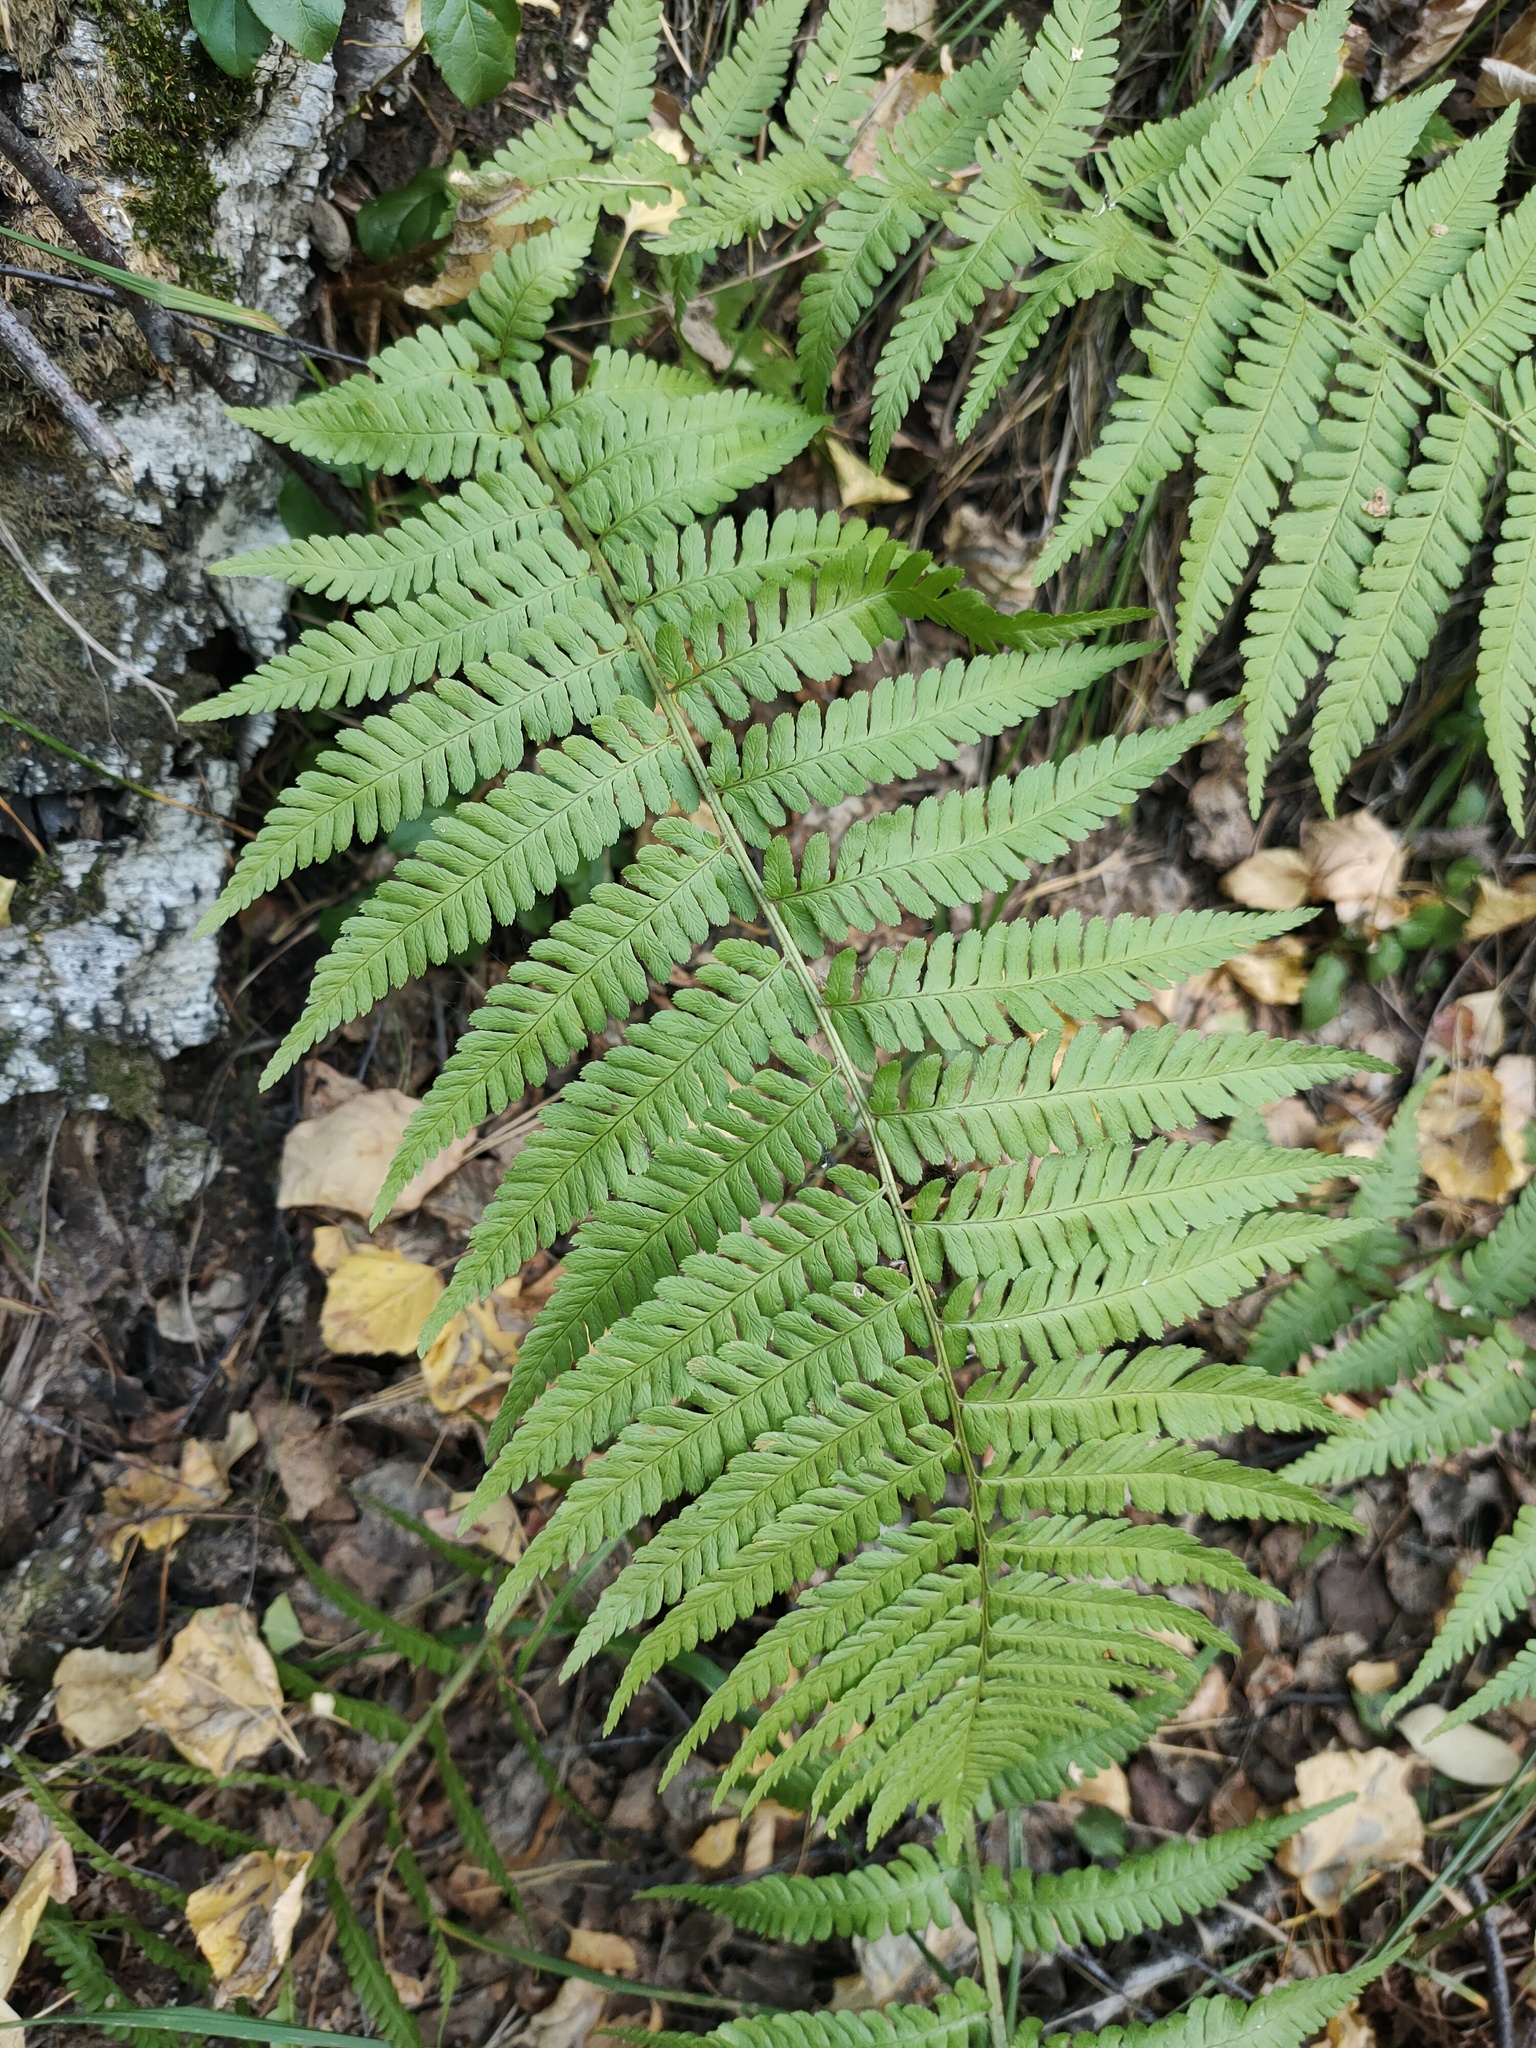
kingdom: Plantae
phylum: Tracheophyta
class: Polypodiopsida
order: Polypodiales
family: Dryopteridaceae
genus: Dryopteris
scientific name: Dryopteris filix-mas
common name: Male fern
